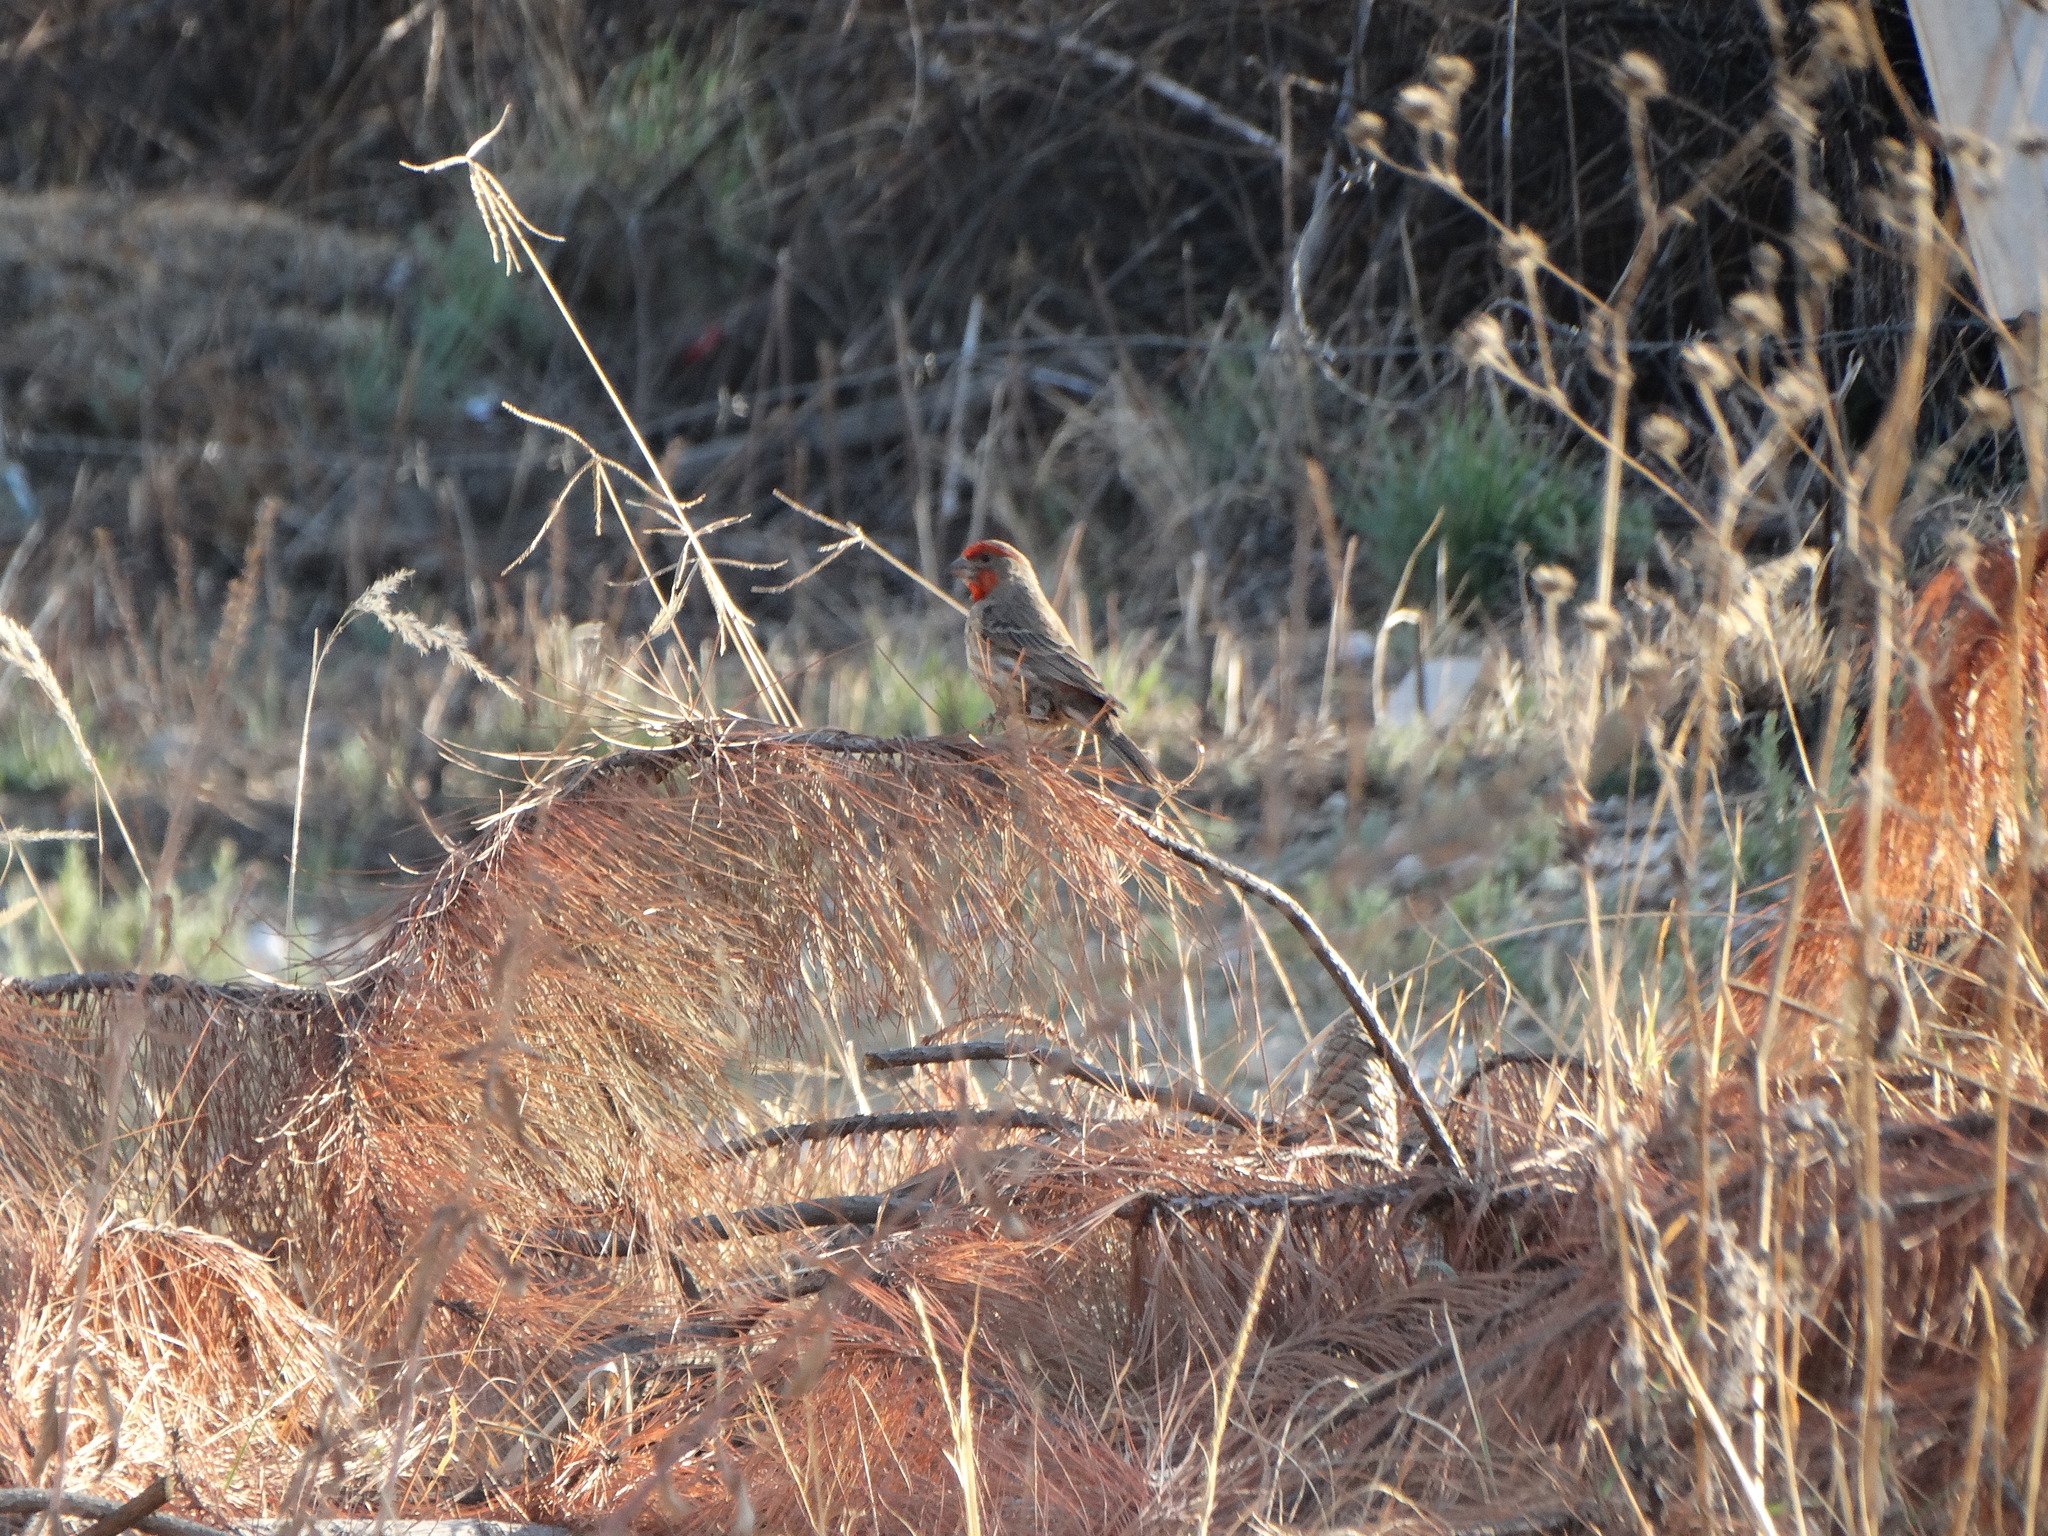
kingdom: Animalia
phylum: Chordata
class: Aves
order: Passeriformes
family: Fringillidae
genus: Haemorhous
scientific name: Haemorhous mexicanus
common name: House finch
